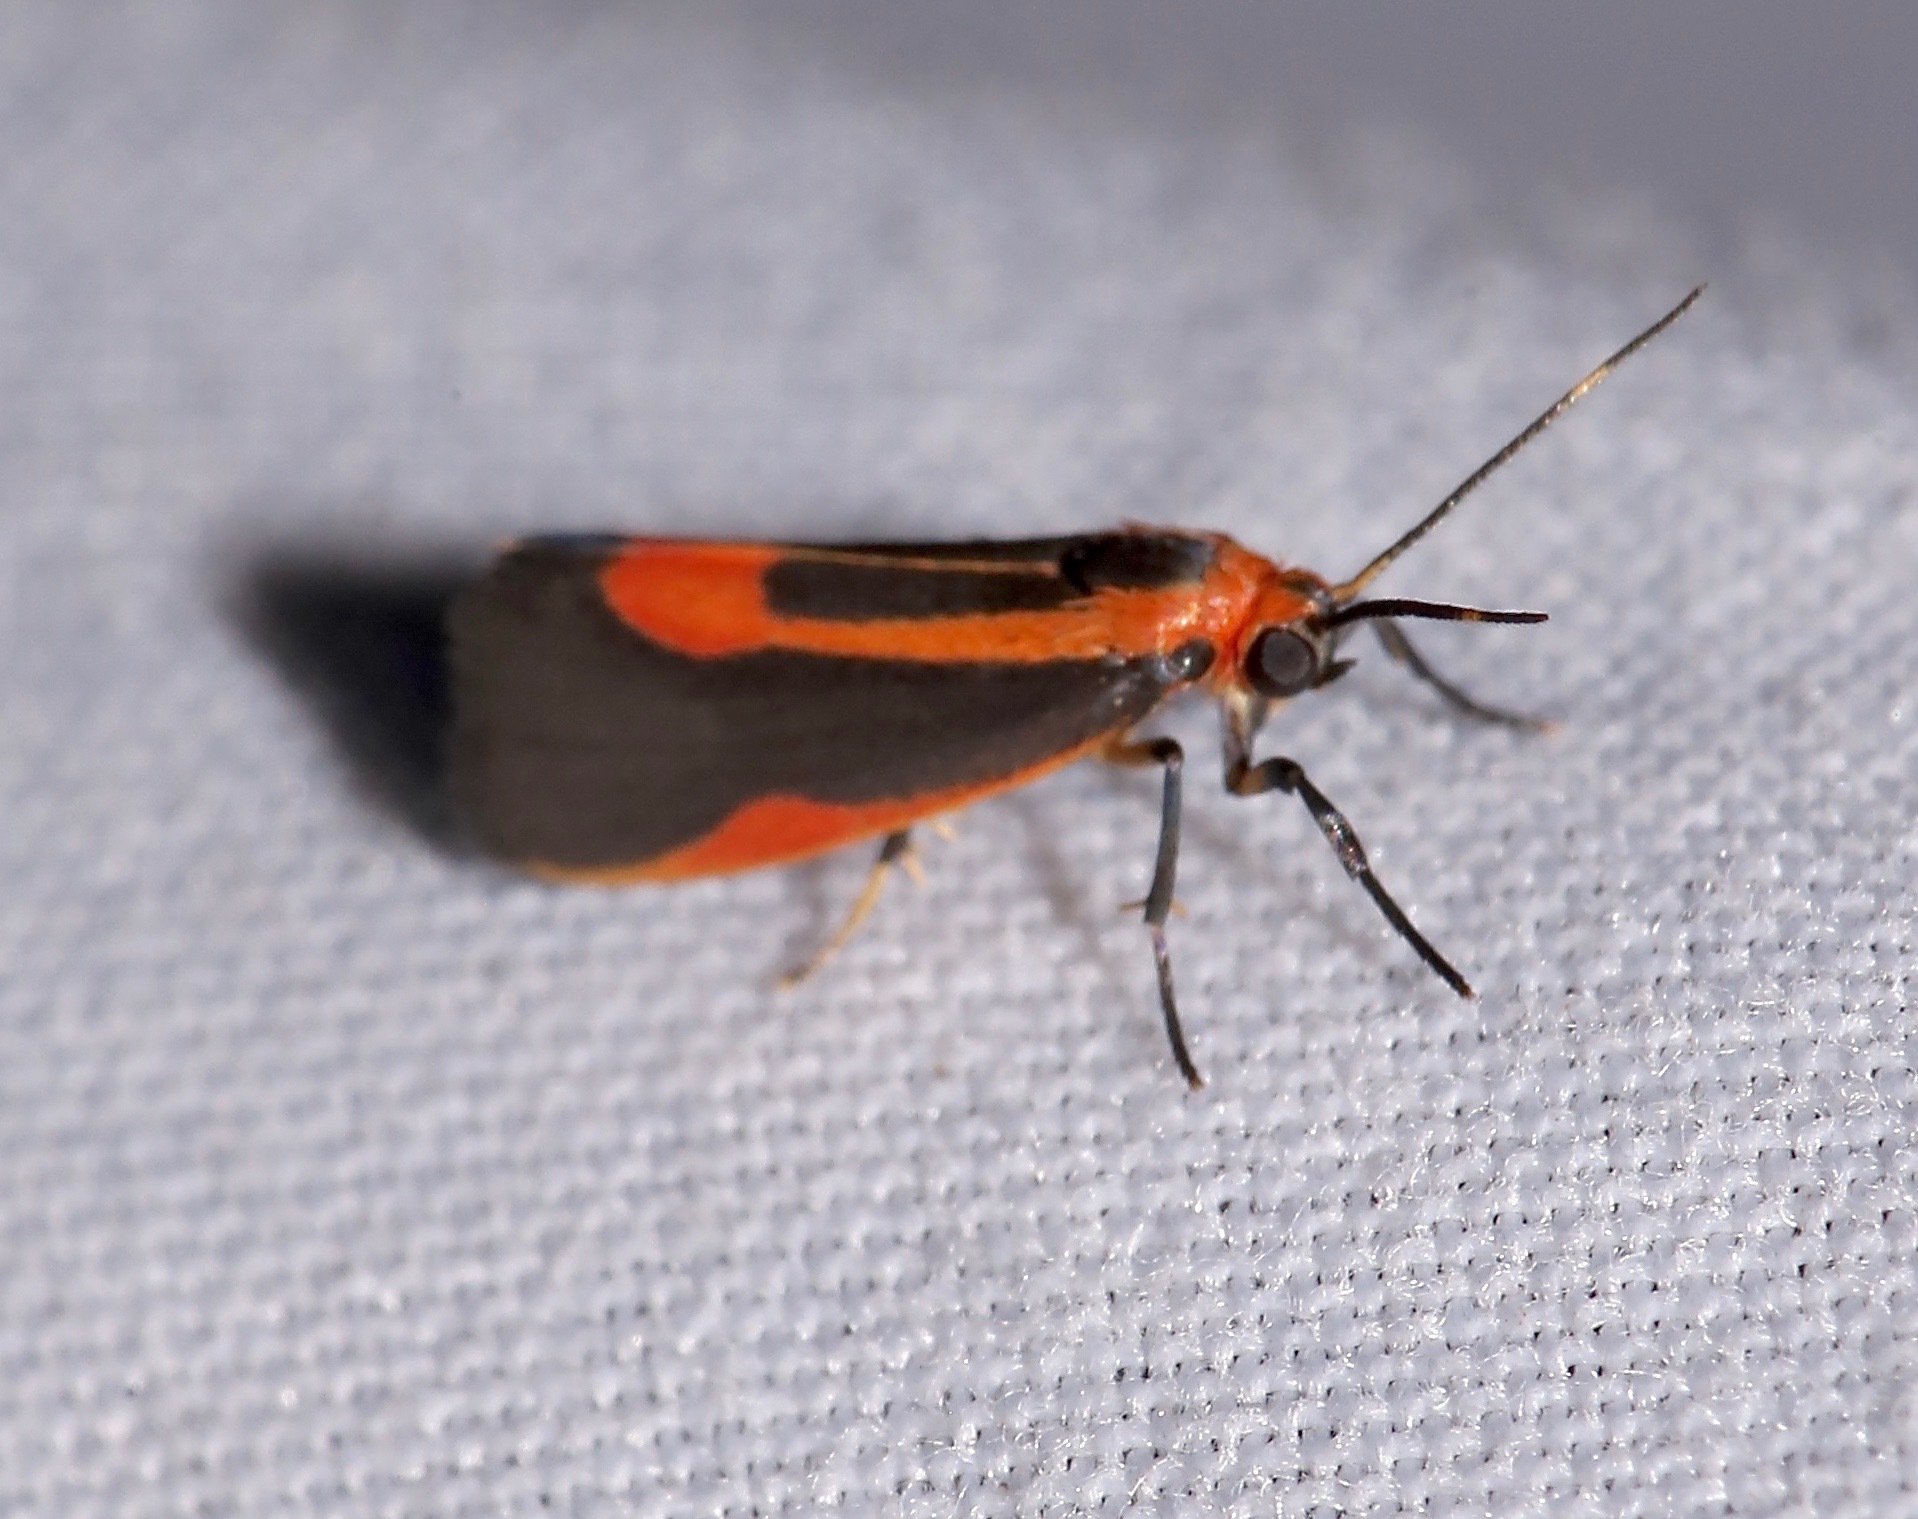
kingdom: Animalia
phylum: Arthropoda
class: Insecta
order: Lepidoptera
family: Erebidae
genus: Cisthene
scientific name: Cisthene subjecta
